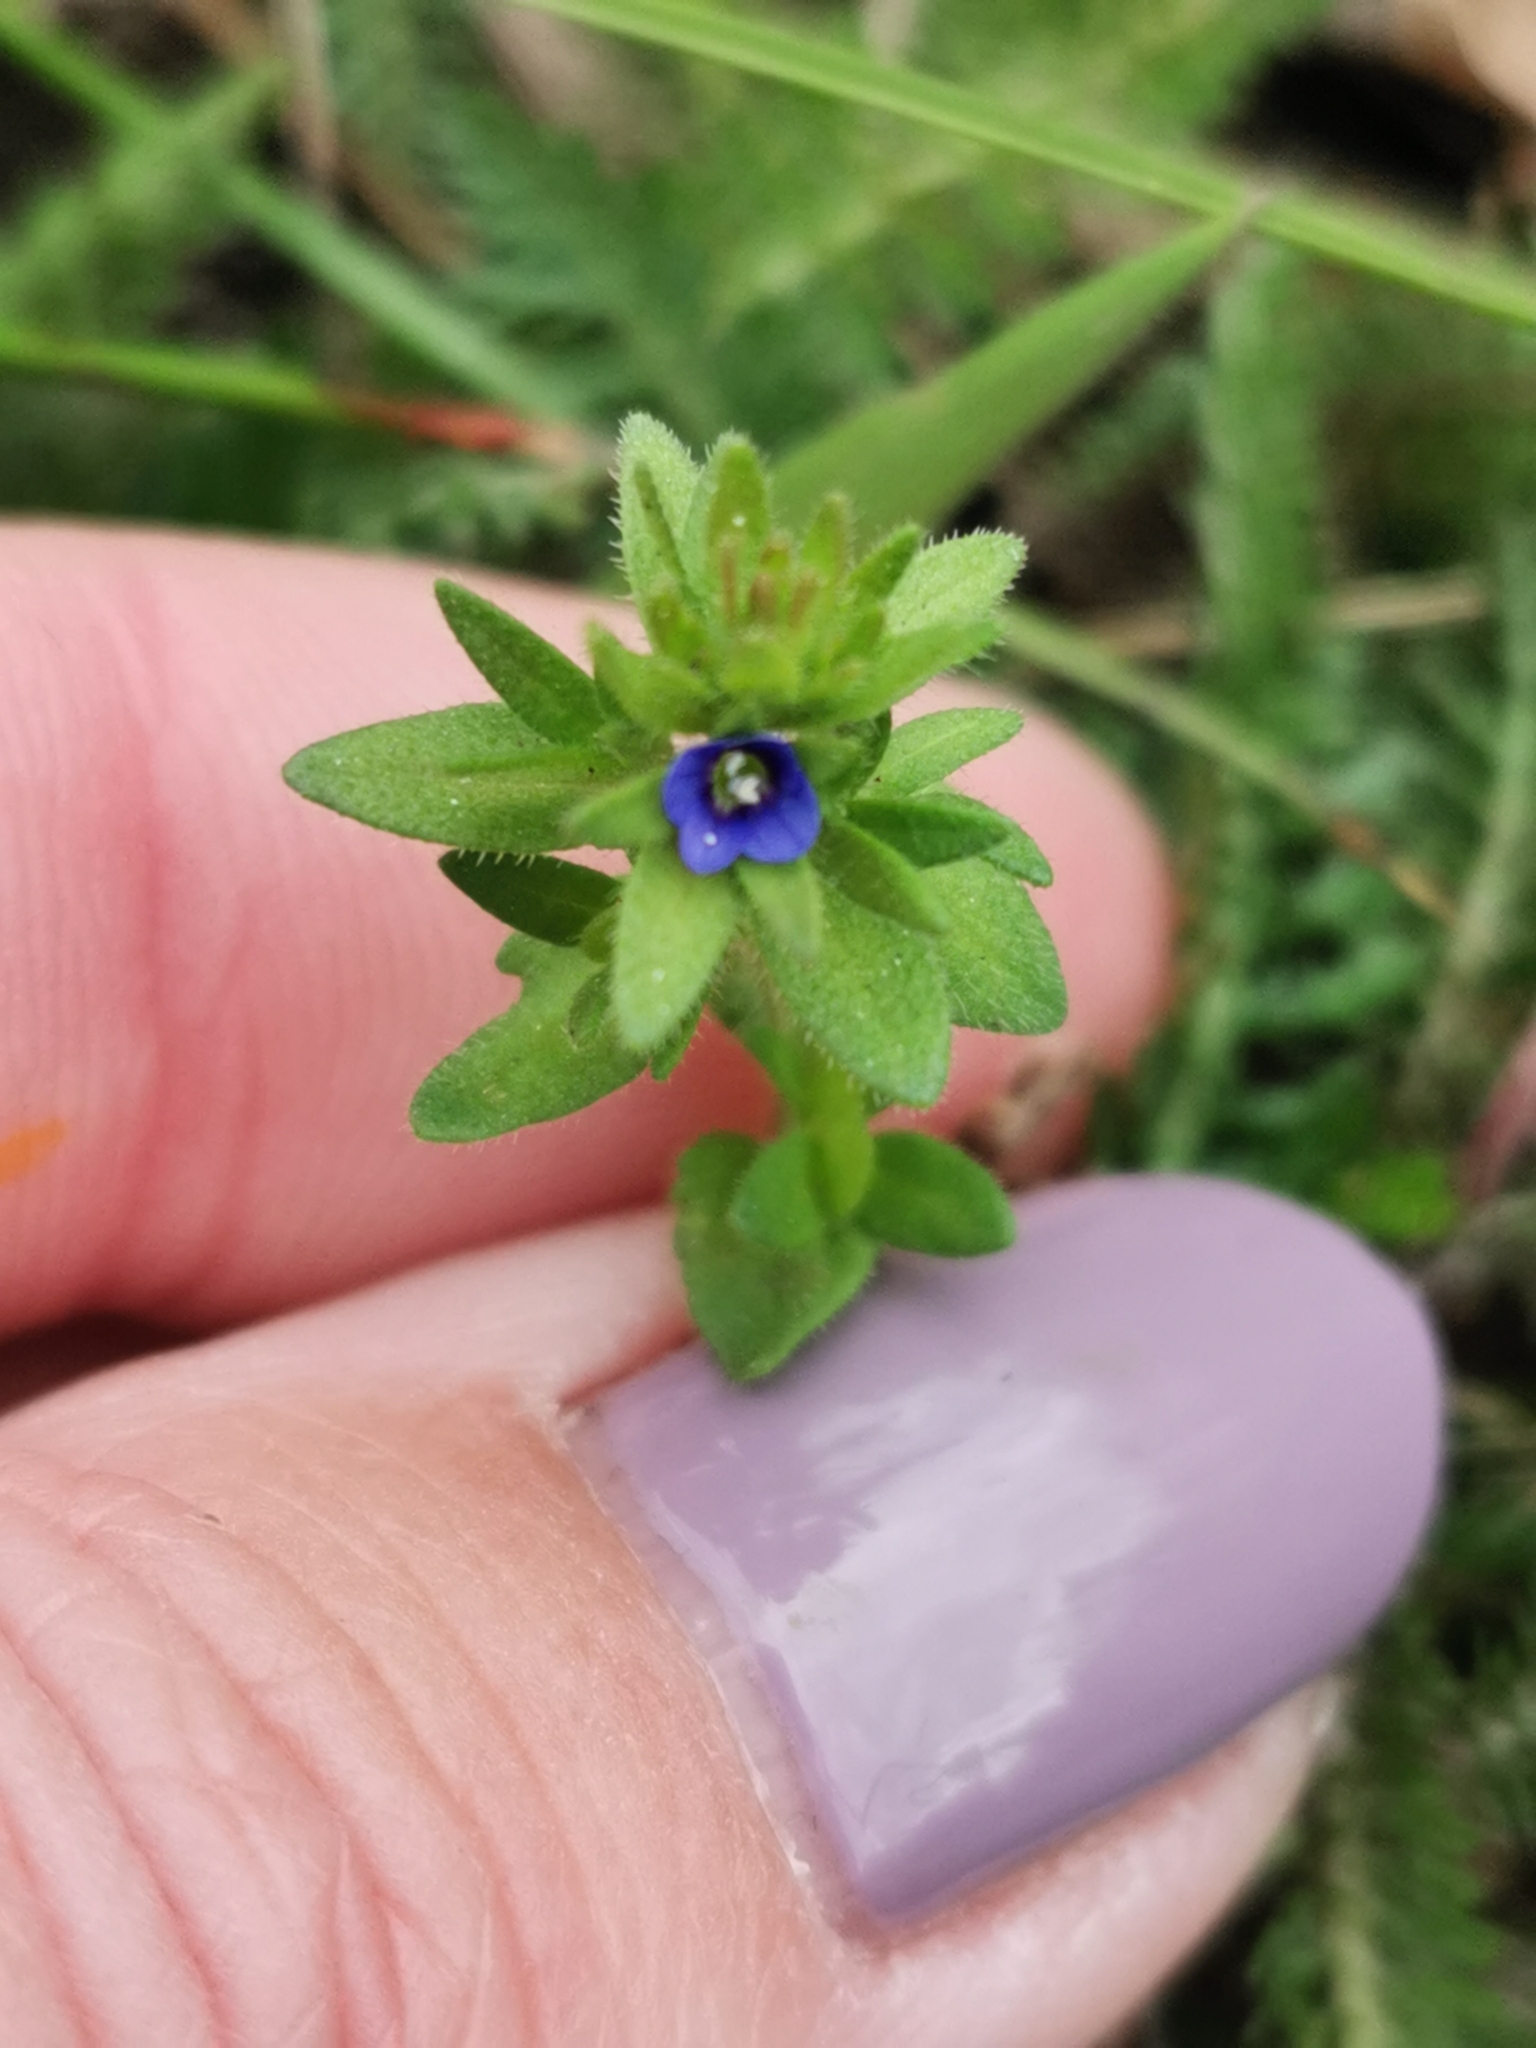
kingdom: Plantae
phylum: Tracheophyta
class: Magnoliopsida
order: Lamiales
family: Plantaginaceae
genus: Veronica
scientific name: Veronica arvensis
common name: Corn speedwell
